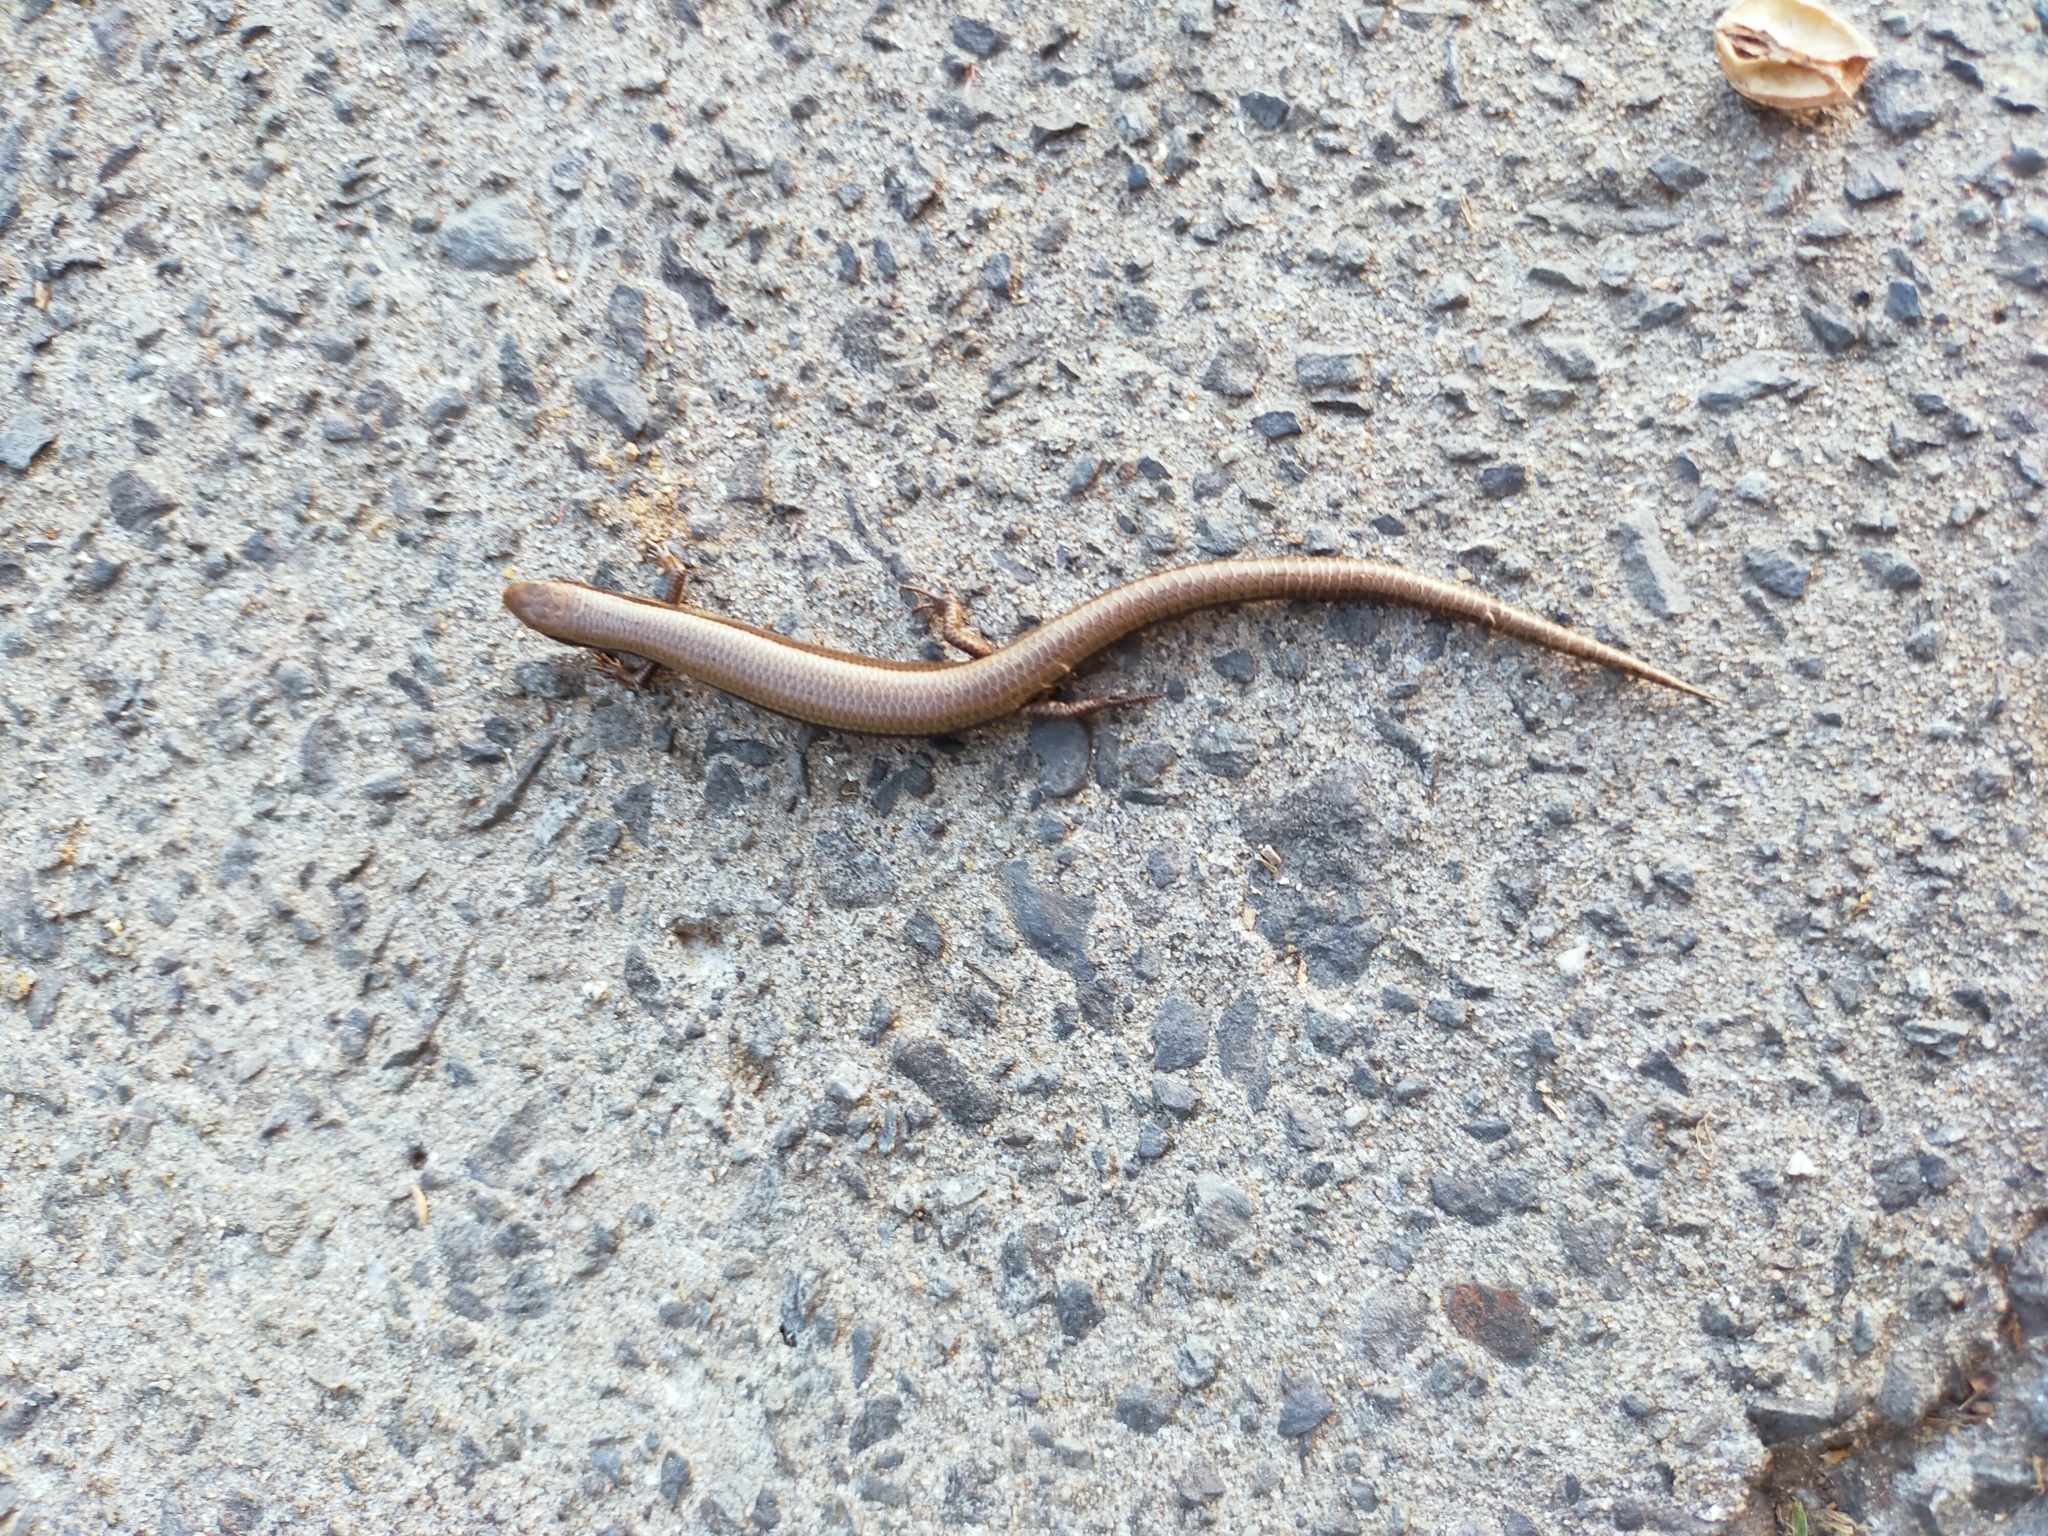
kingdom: Animalia
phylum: Chordata
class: Squamata
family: Scincidae
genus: Ablepharus
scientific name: Ablepharus kitaibelii
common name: Juniper skink
